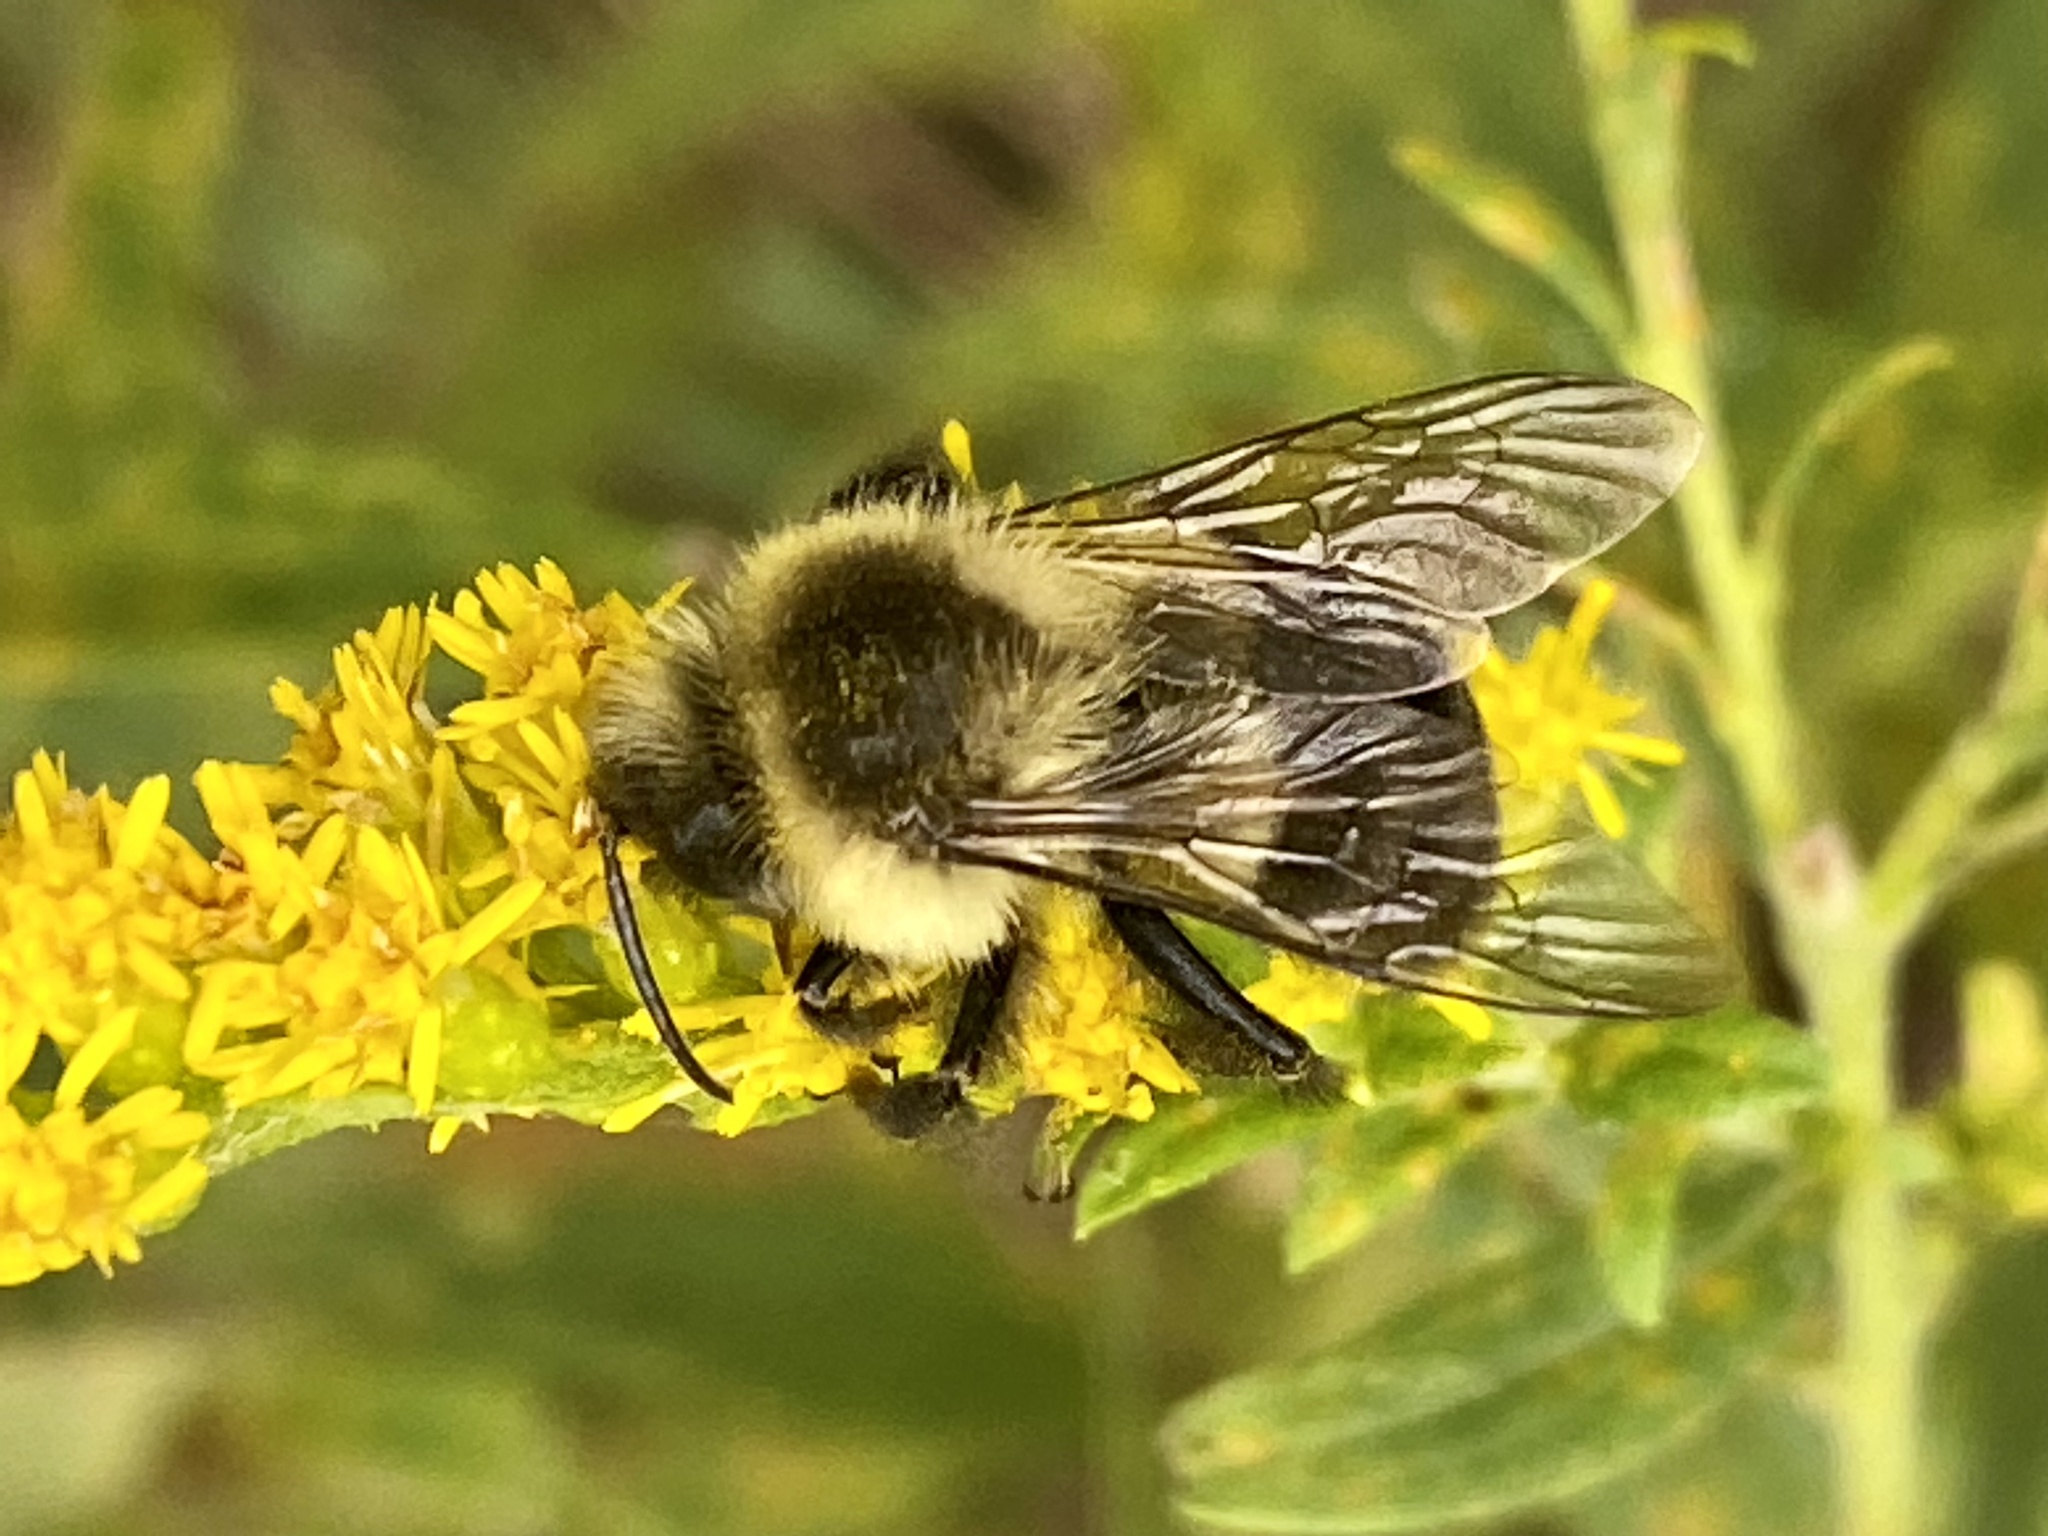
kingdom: Animalia
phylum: Arthropoda
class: Insecta
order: Hymenoptera
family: Apidae
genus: Bombus
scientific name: Bombus impatiens
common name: Common eastern bumble bee
